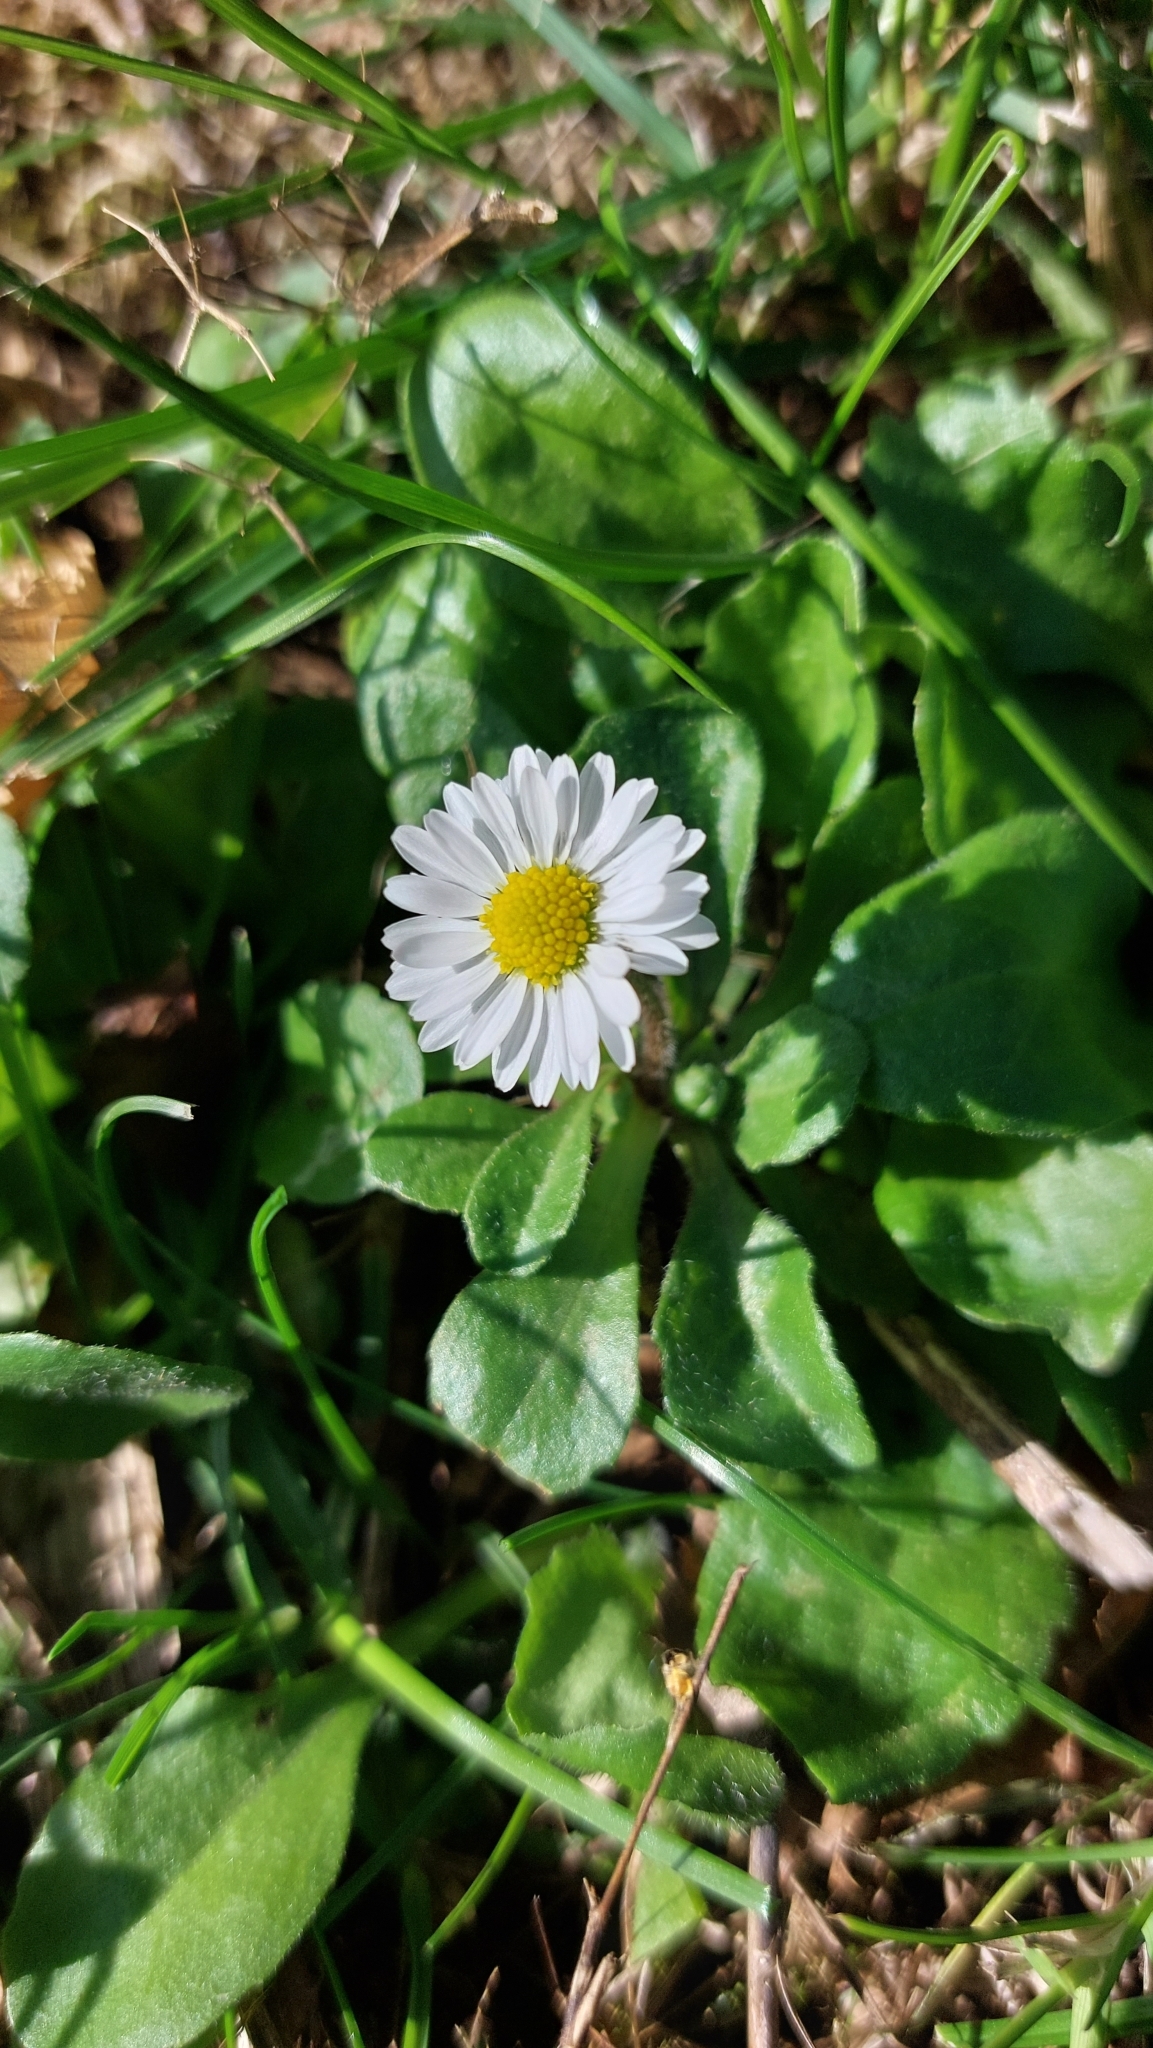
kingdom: Plantae
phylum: Tracheophyta
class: Magnoliopsida
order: Asterales
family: Asteraceae
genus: Bellis
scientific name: Bellis perennis
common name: Lawndaisy
